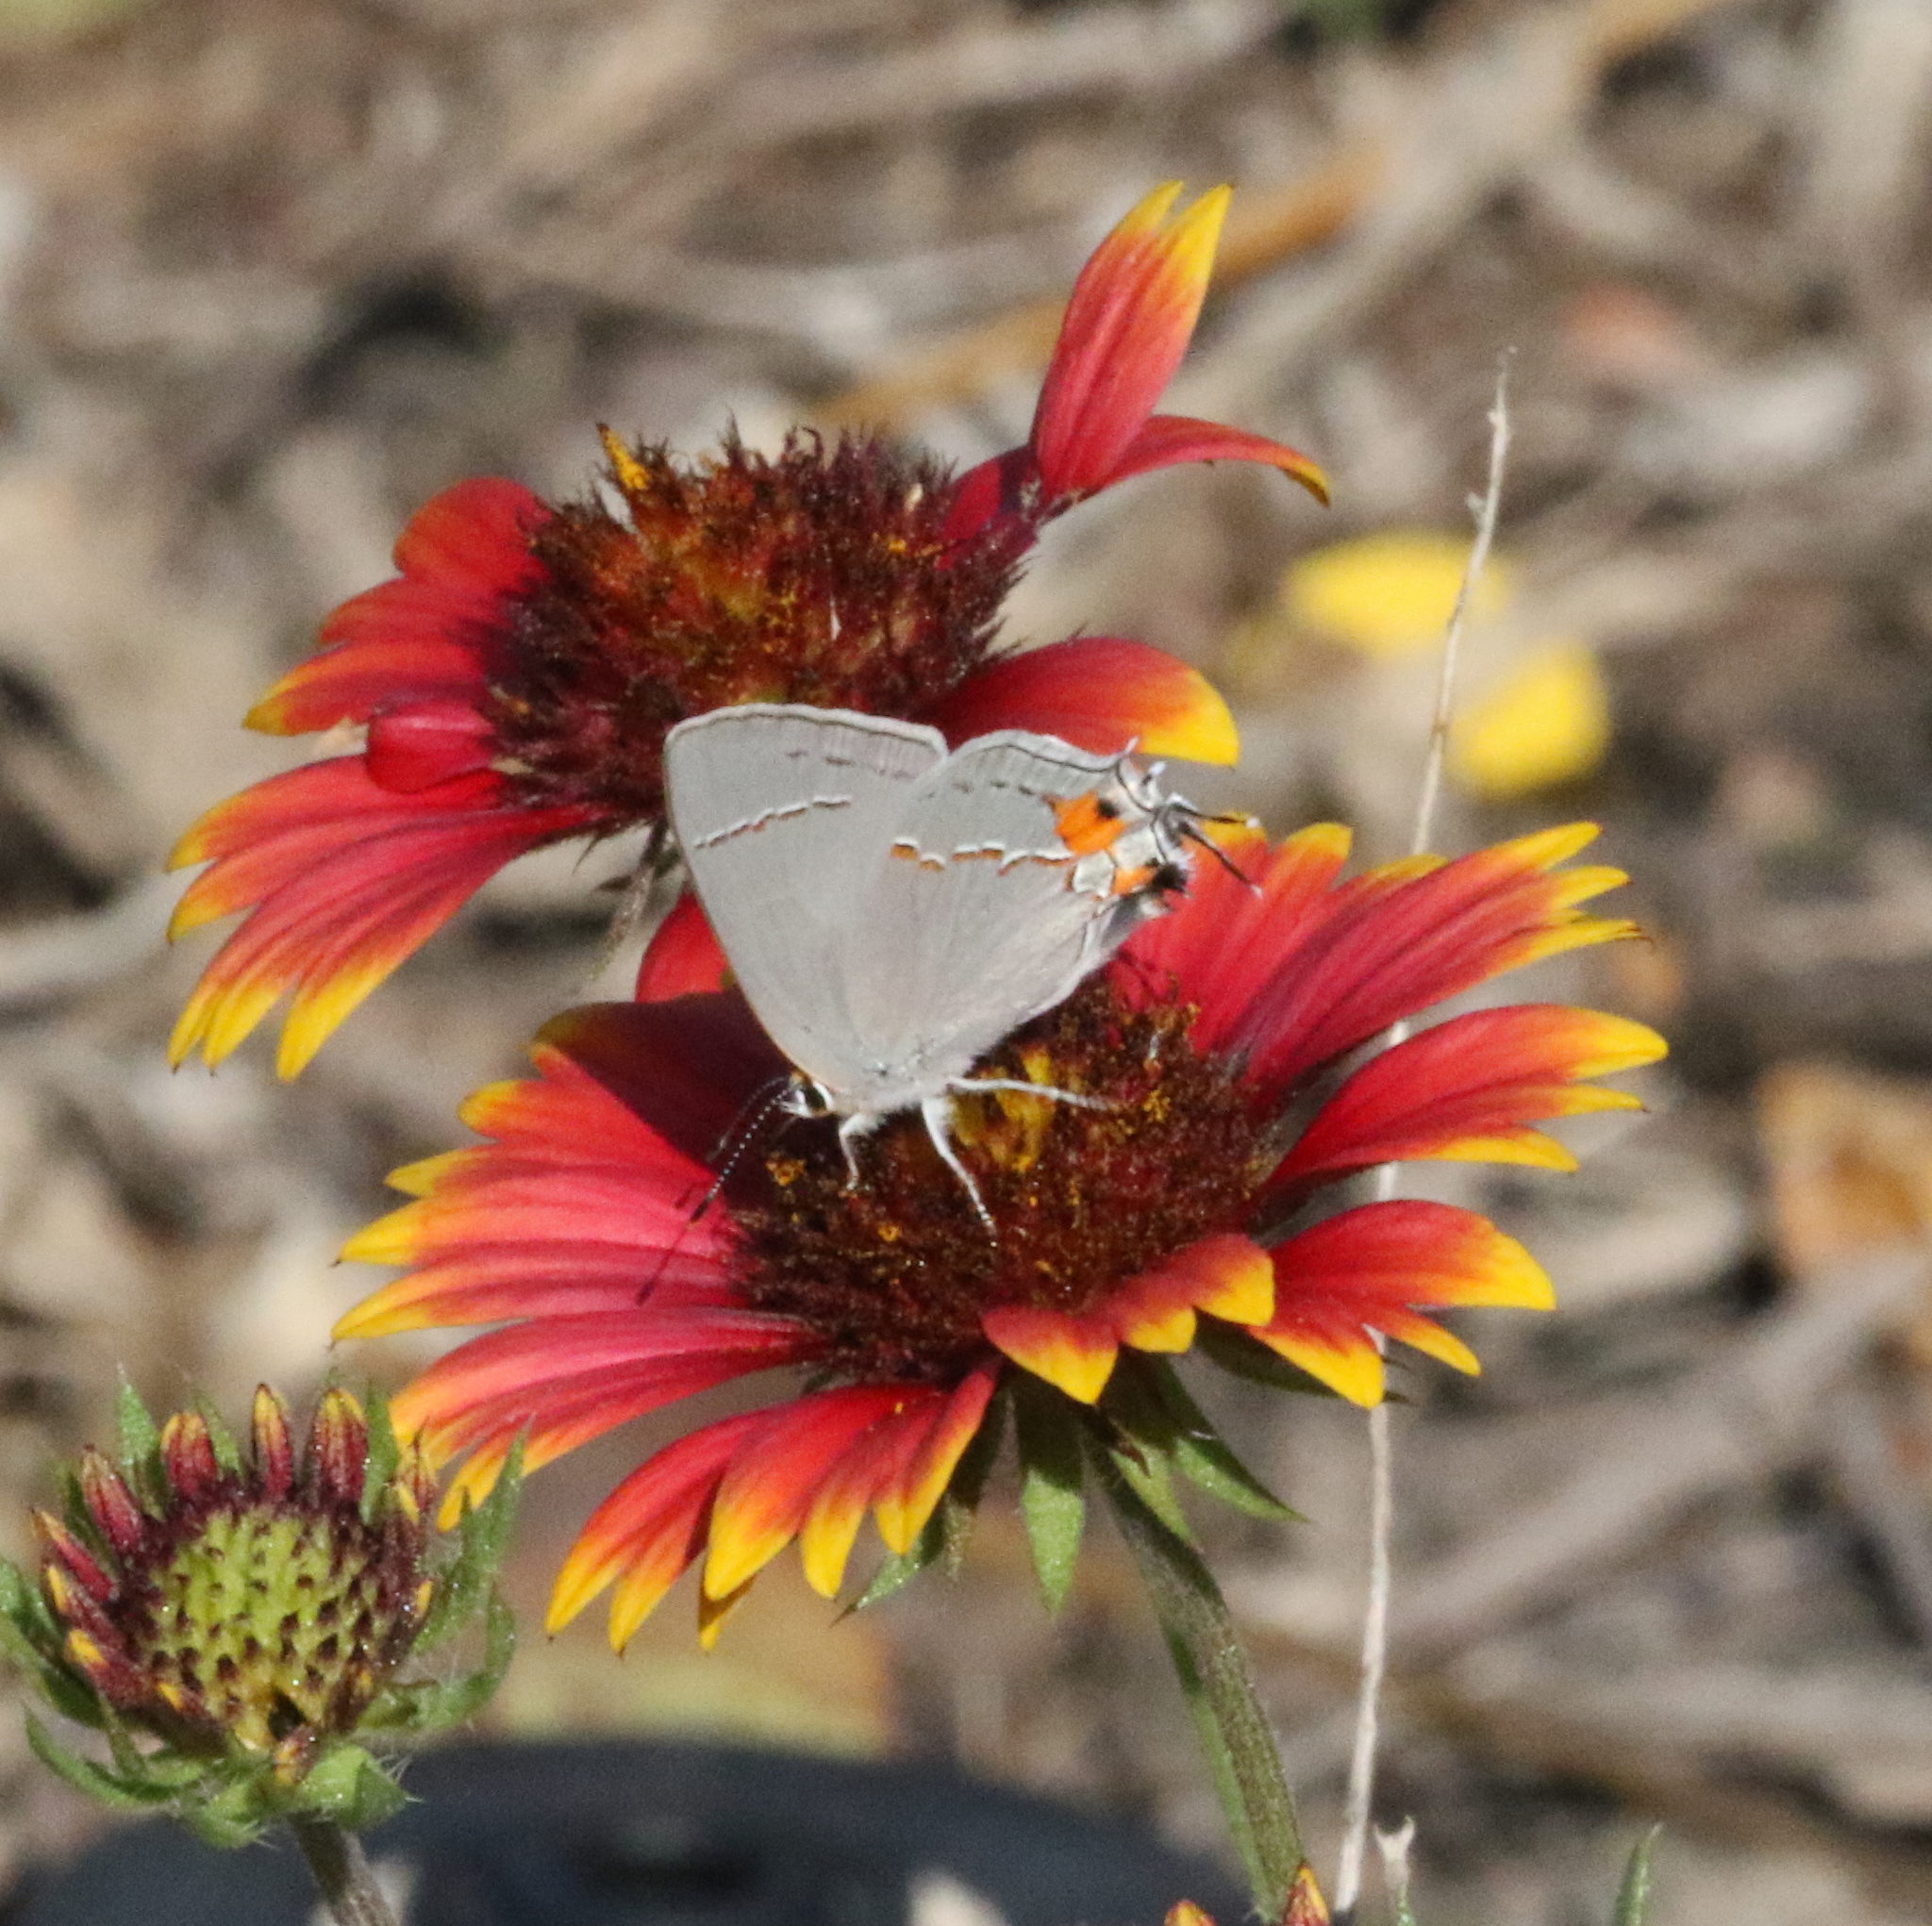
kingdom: Animalia
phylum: Arthropoda
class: Insecta
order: Lepidoptera
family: Lycaenidae
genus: Strymon
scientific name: Strymon melinus
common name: Gray hairstreak
